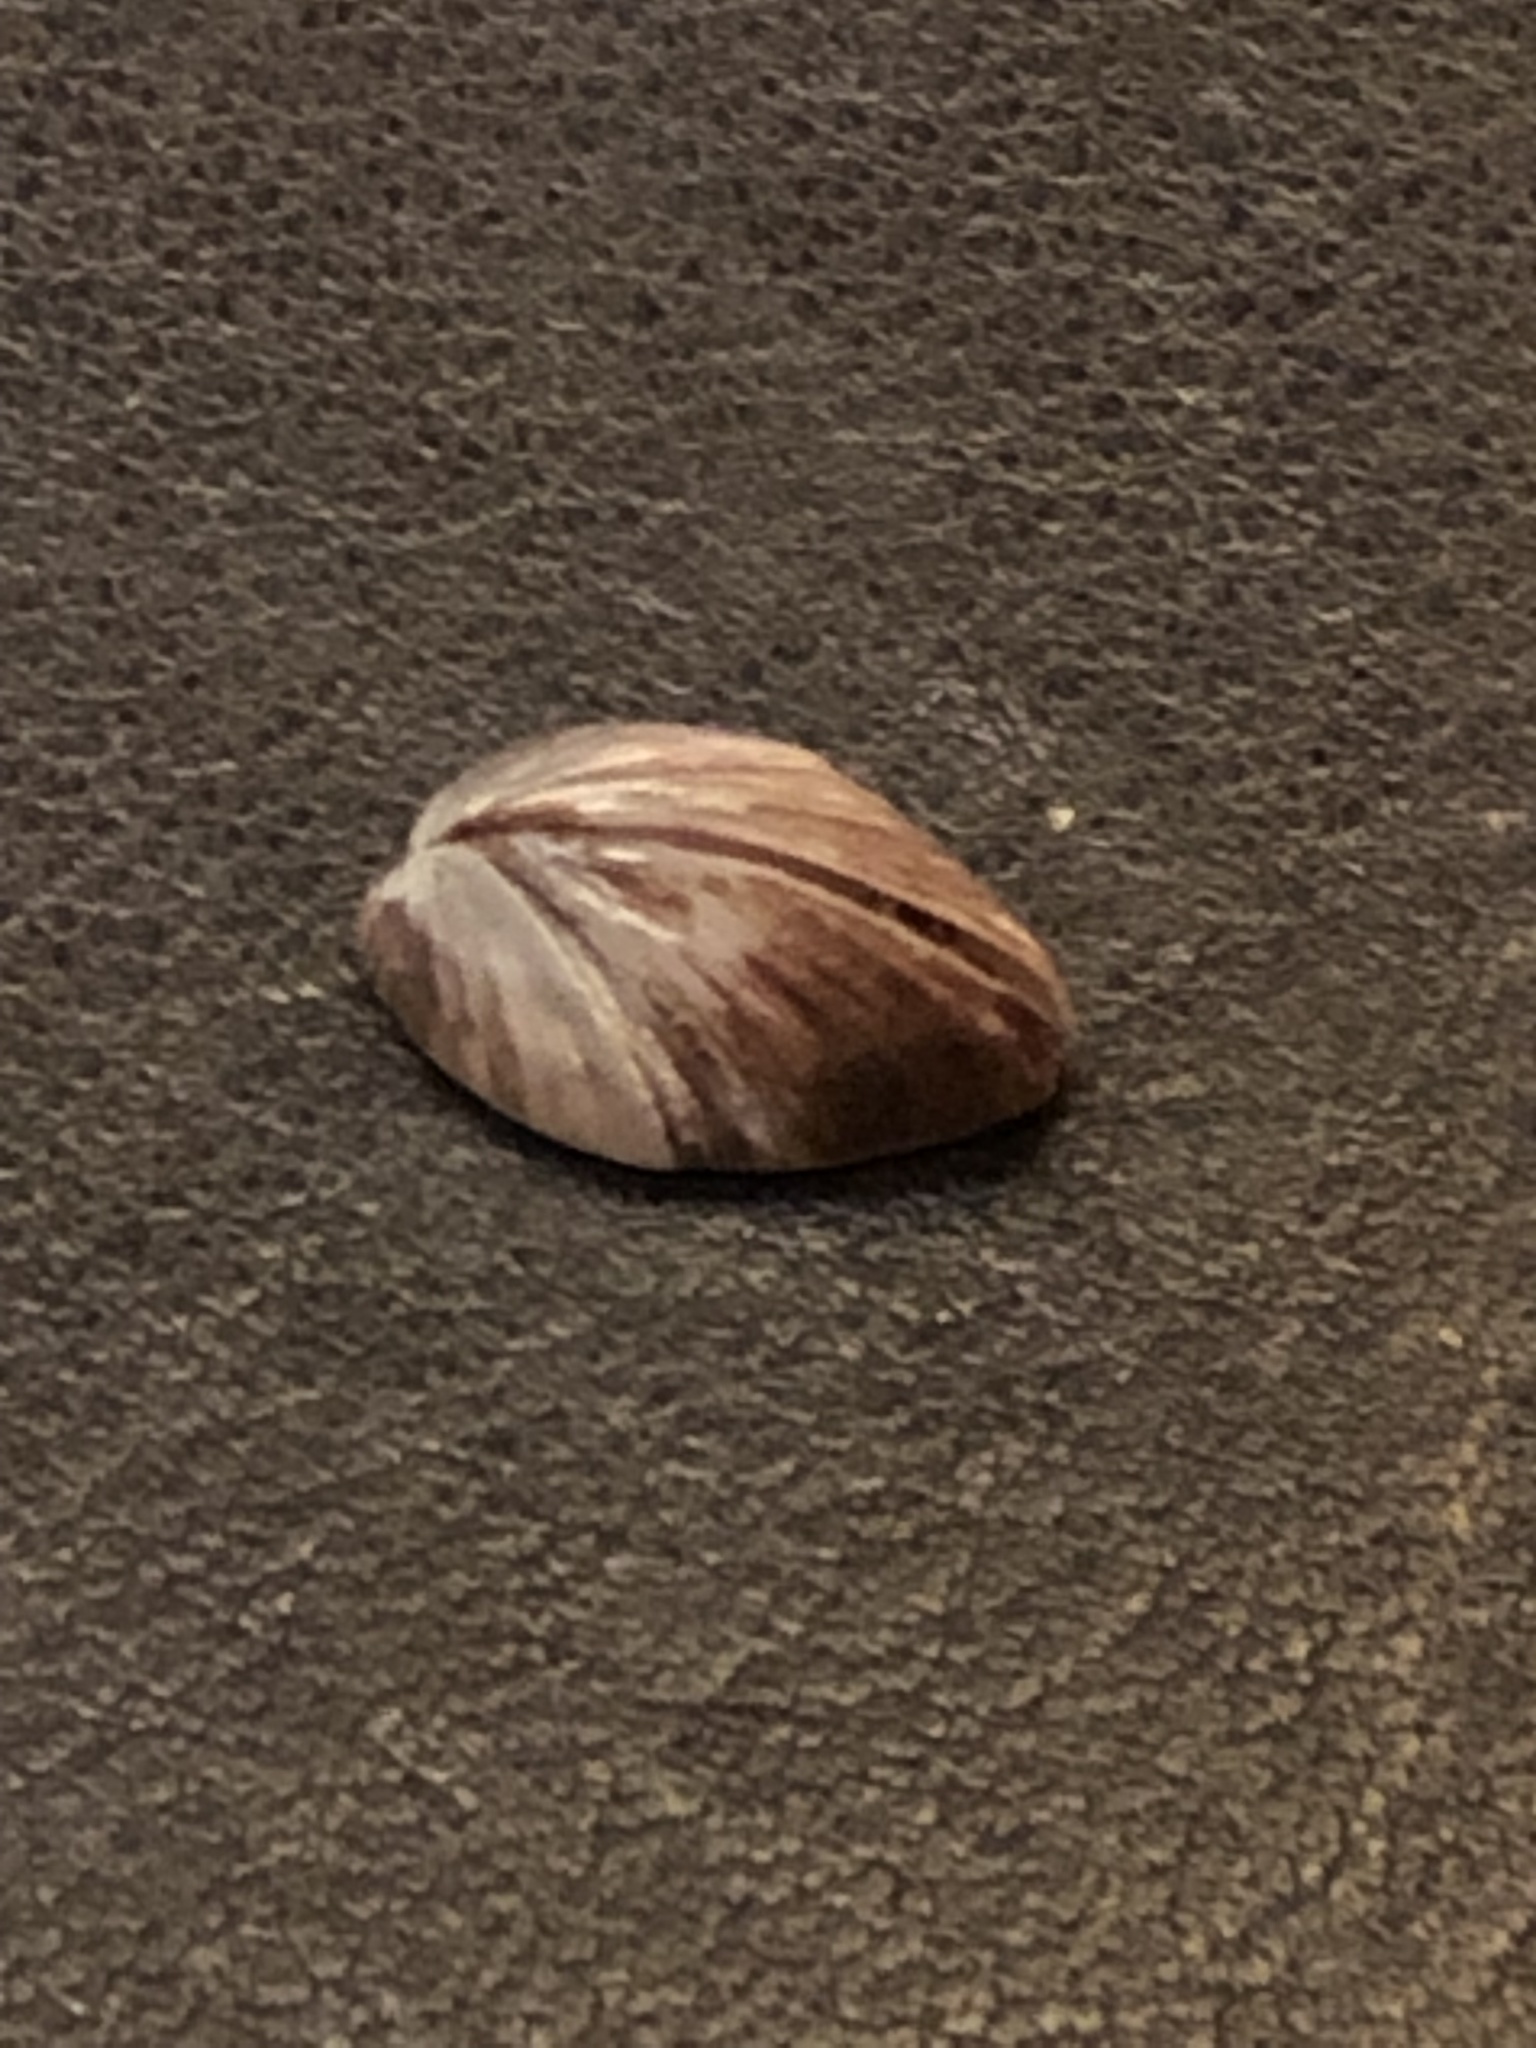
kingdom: Animalia
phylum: Mollusca
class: Bivalvia
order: Myida
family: Dreissenidae
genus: Dreissena
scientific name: Dreissena polymorpha
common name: Zebra mussel
